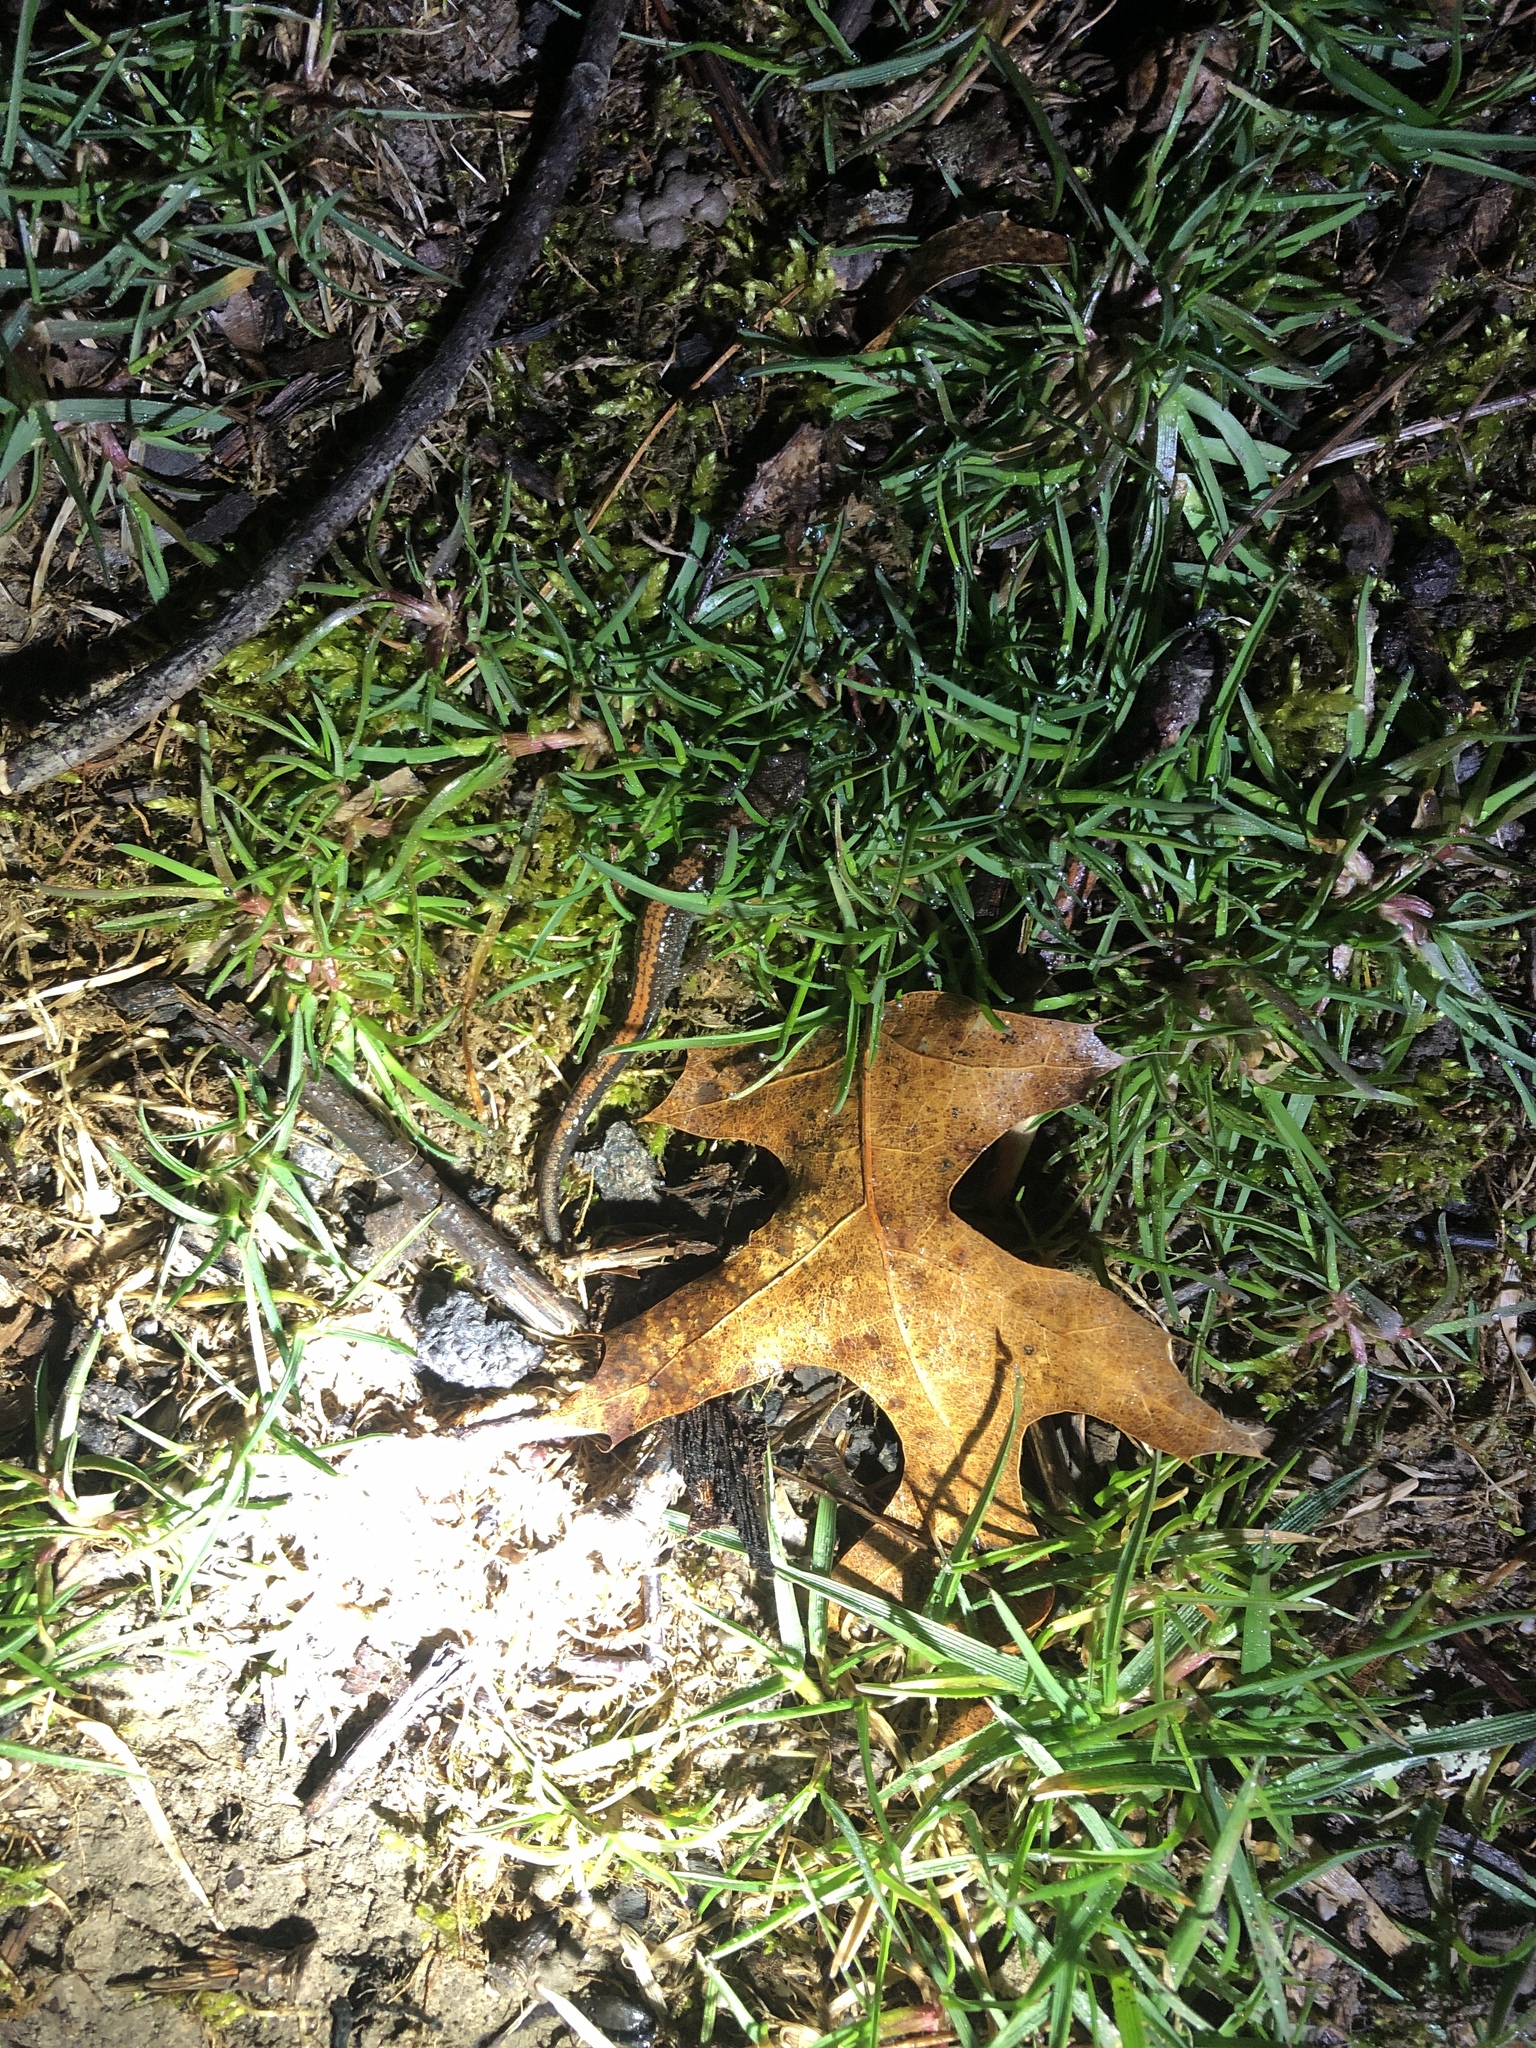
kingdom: Animalia
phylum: Chordata
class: Amphibia
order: Caudata
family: Plethodontidae
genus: Plethodon
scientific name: Plethodon cinereus
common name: Redback salamander
